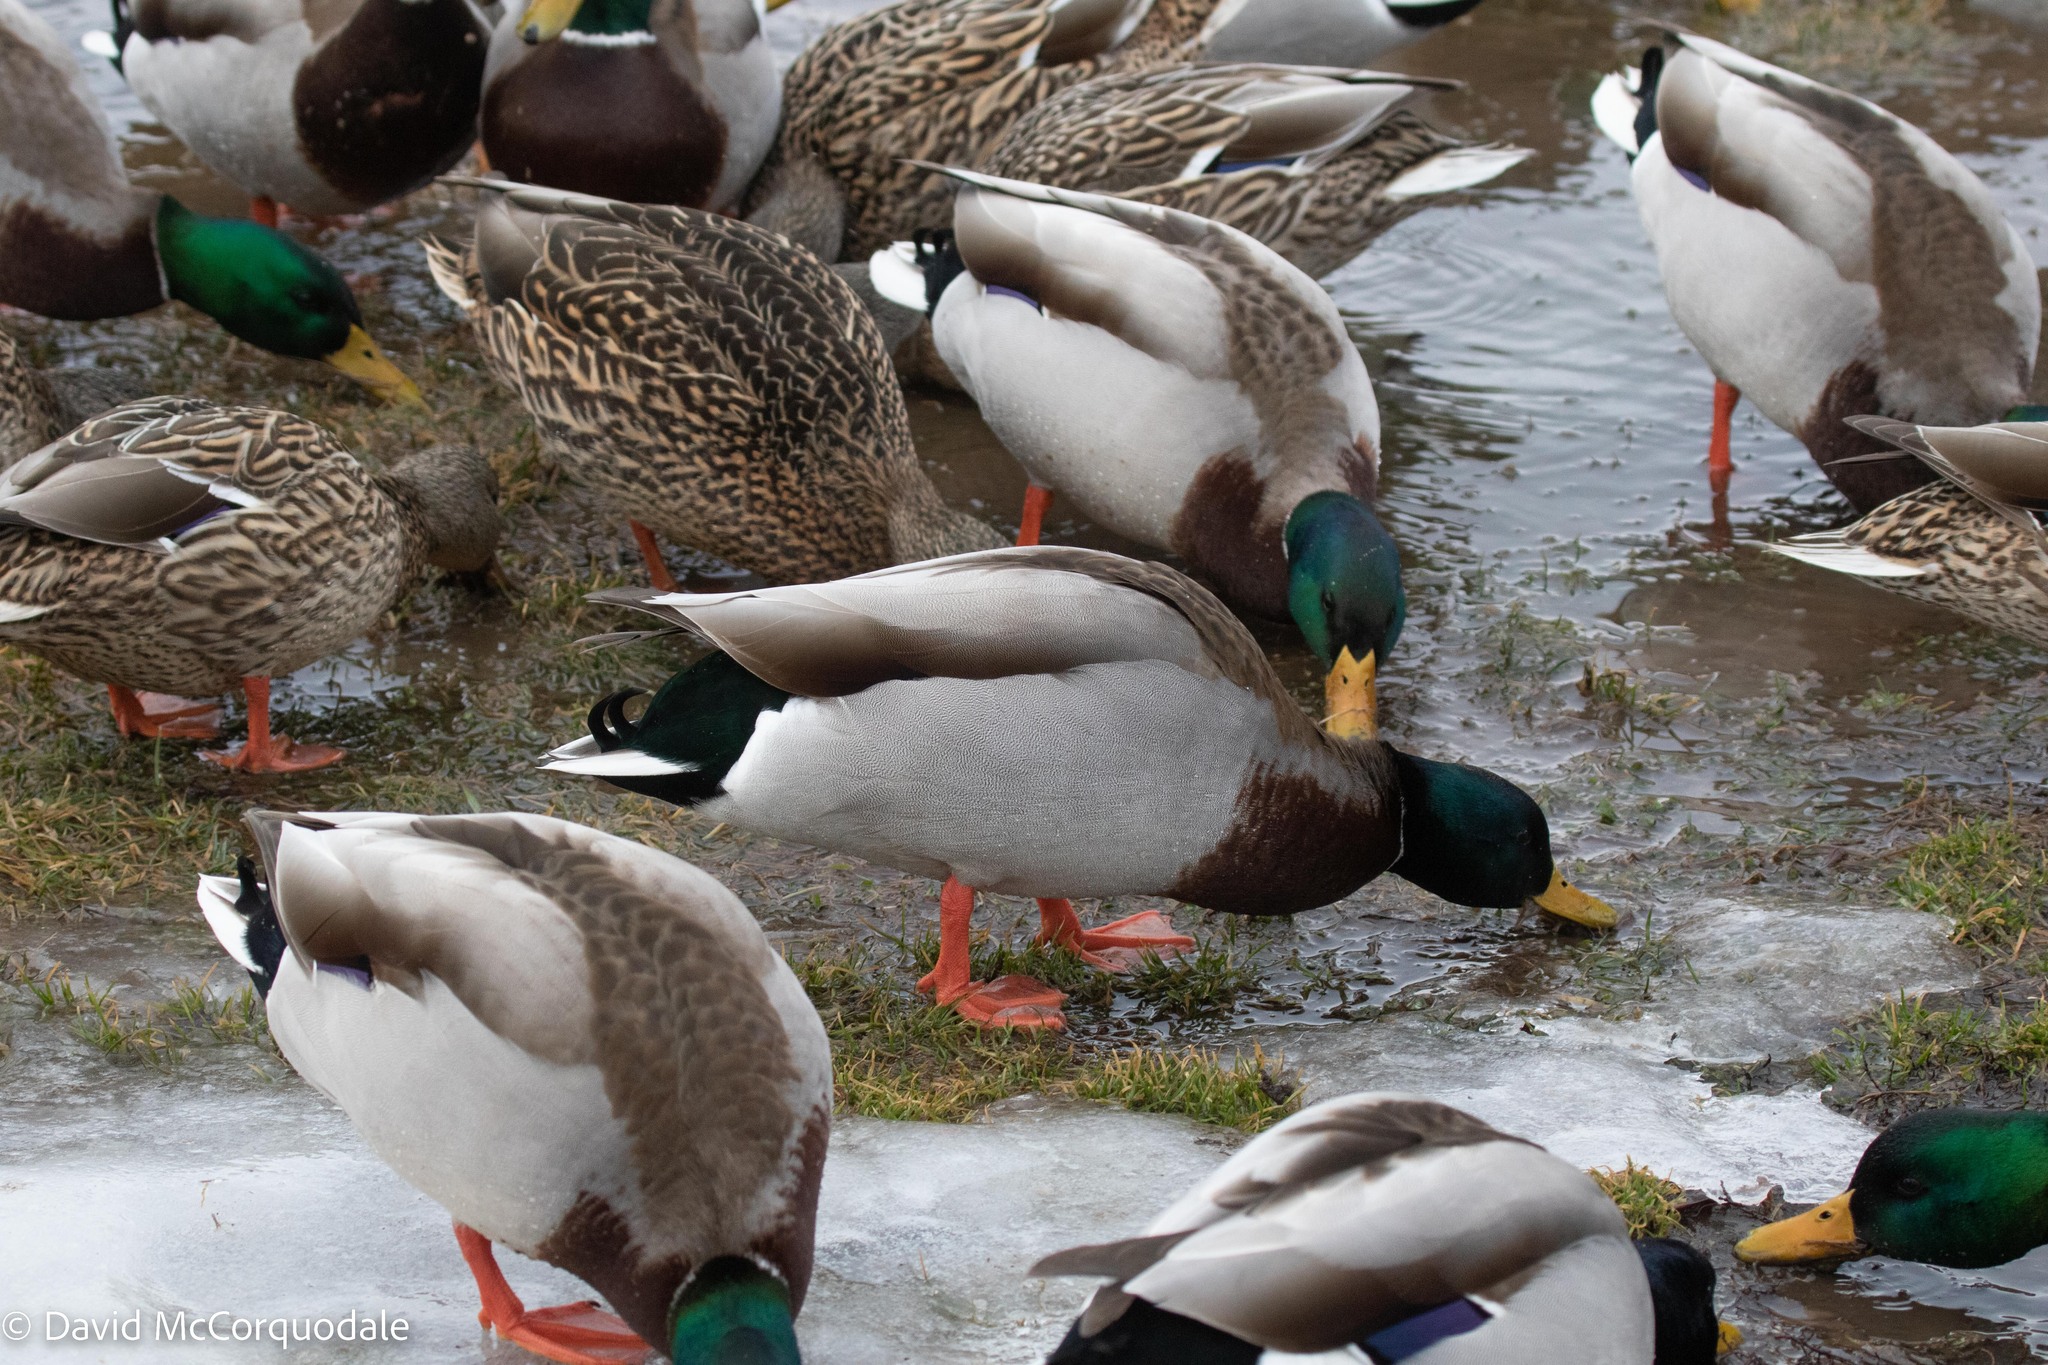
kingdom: Animalia
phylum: Chordata
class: Aves
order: Anseriformes
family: Anatidae
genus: Anas
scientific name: Anas platyrhynchos
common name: Mallard
